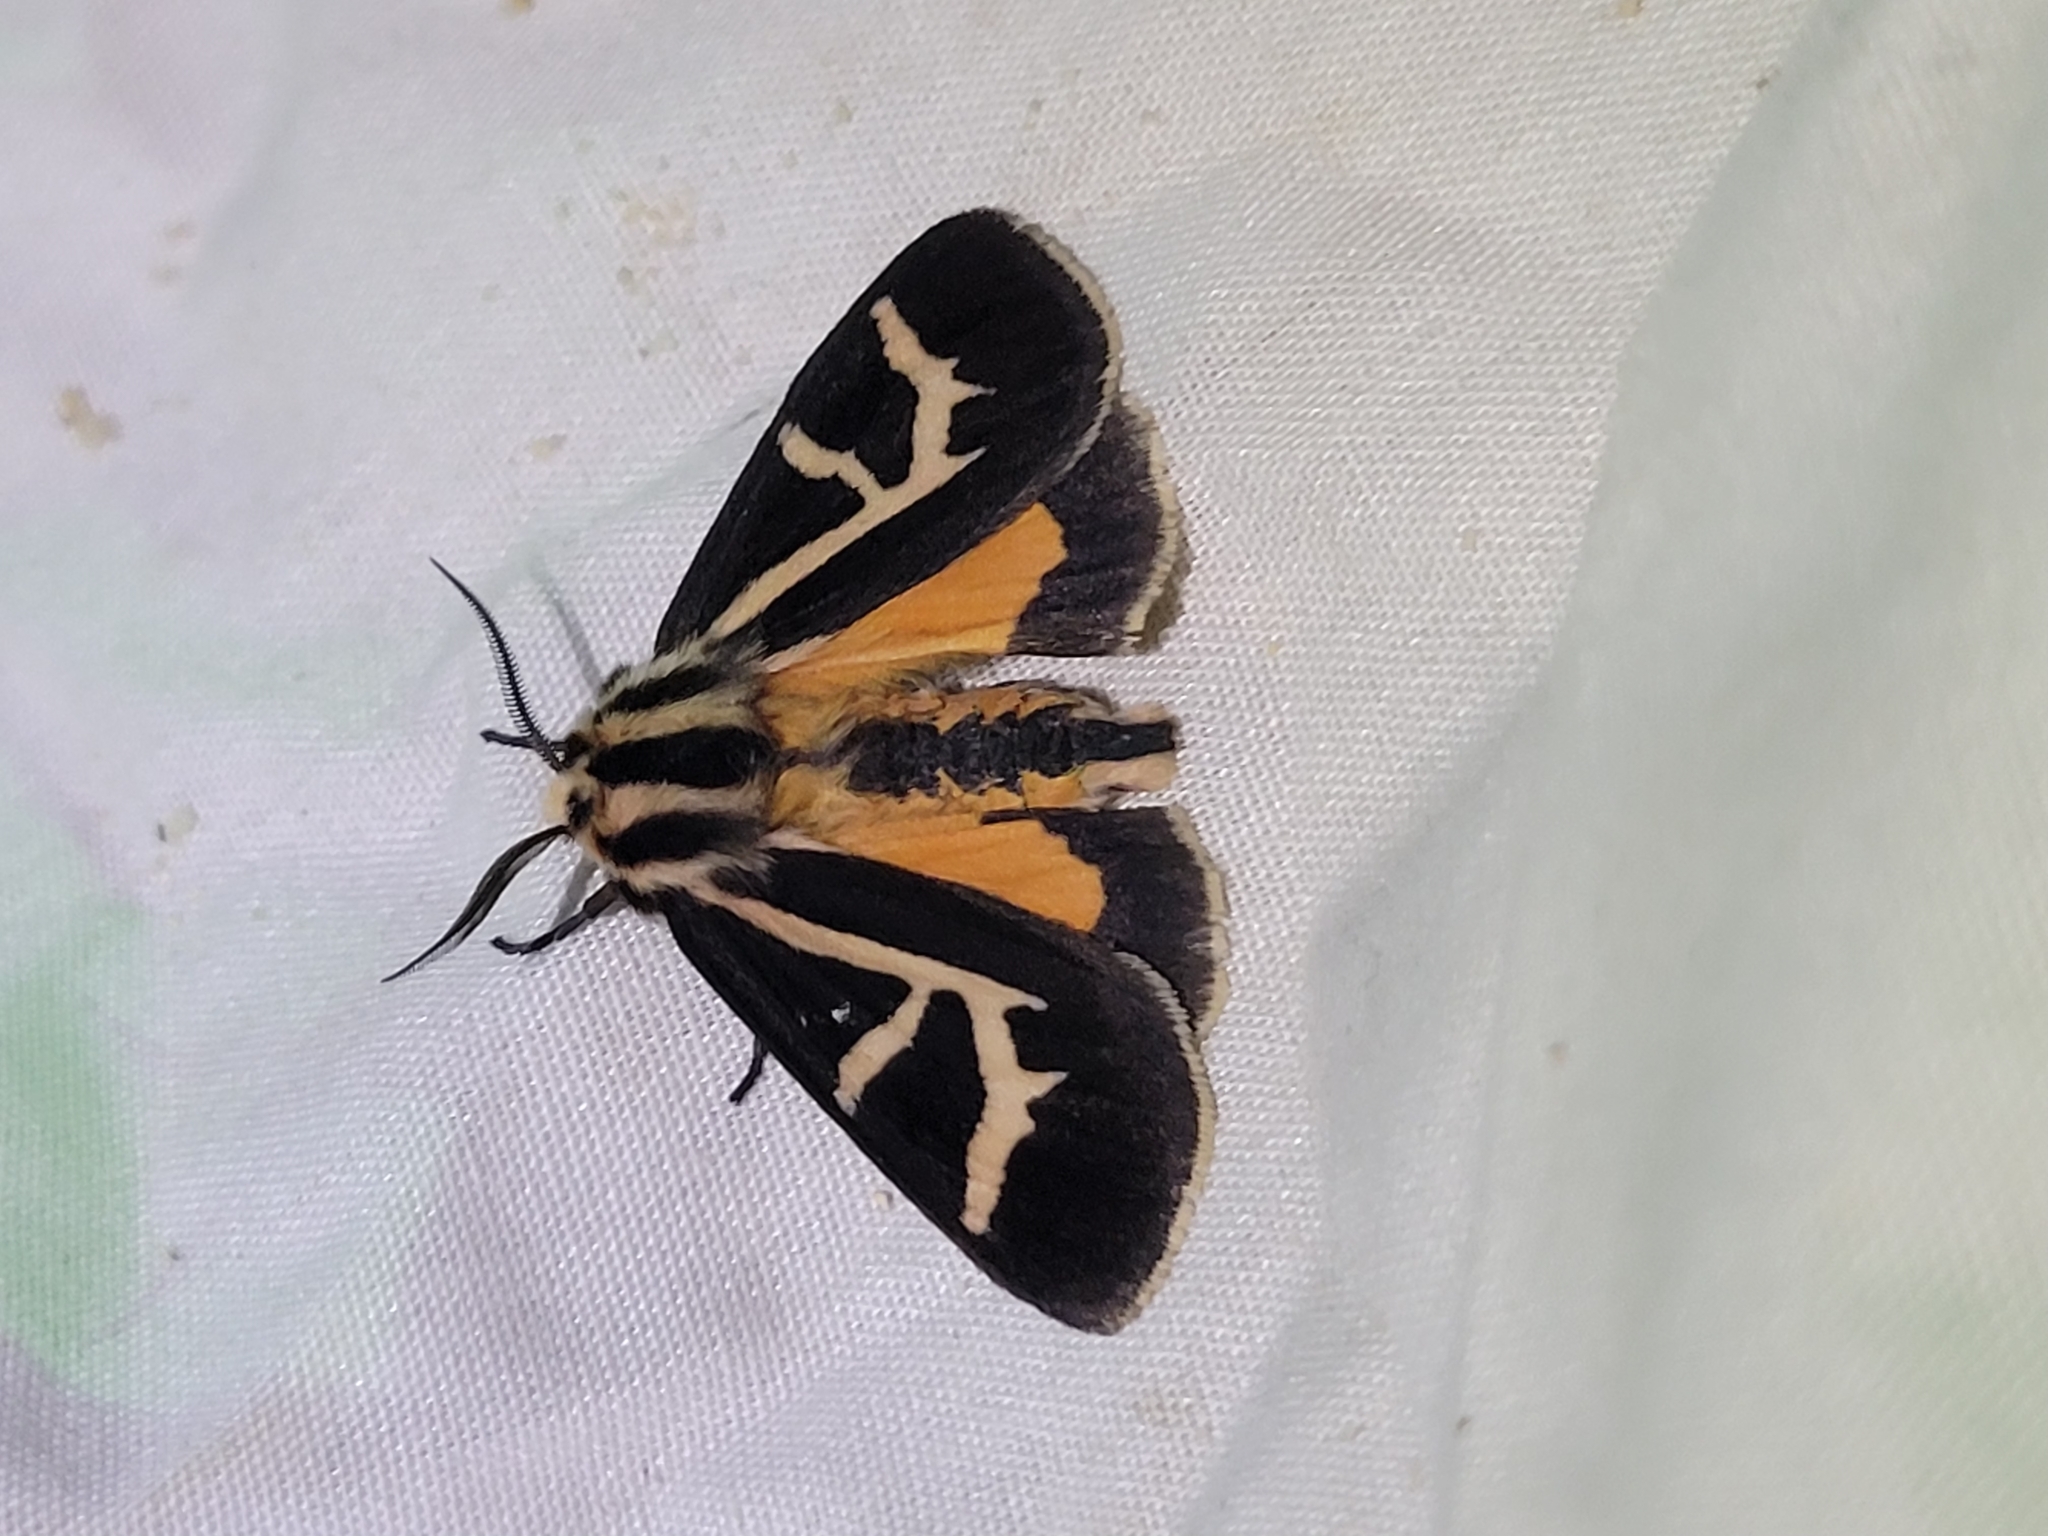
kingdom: Animalia
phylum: Arthropoda
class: Insecta
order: Lepidoptera
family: Erebidae
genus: Apantesis
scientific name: Apantesis
